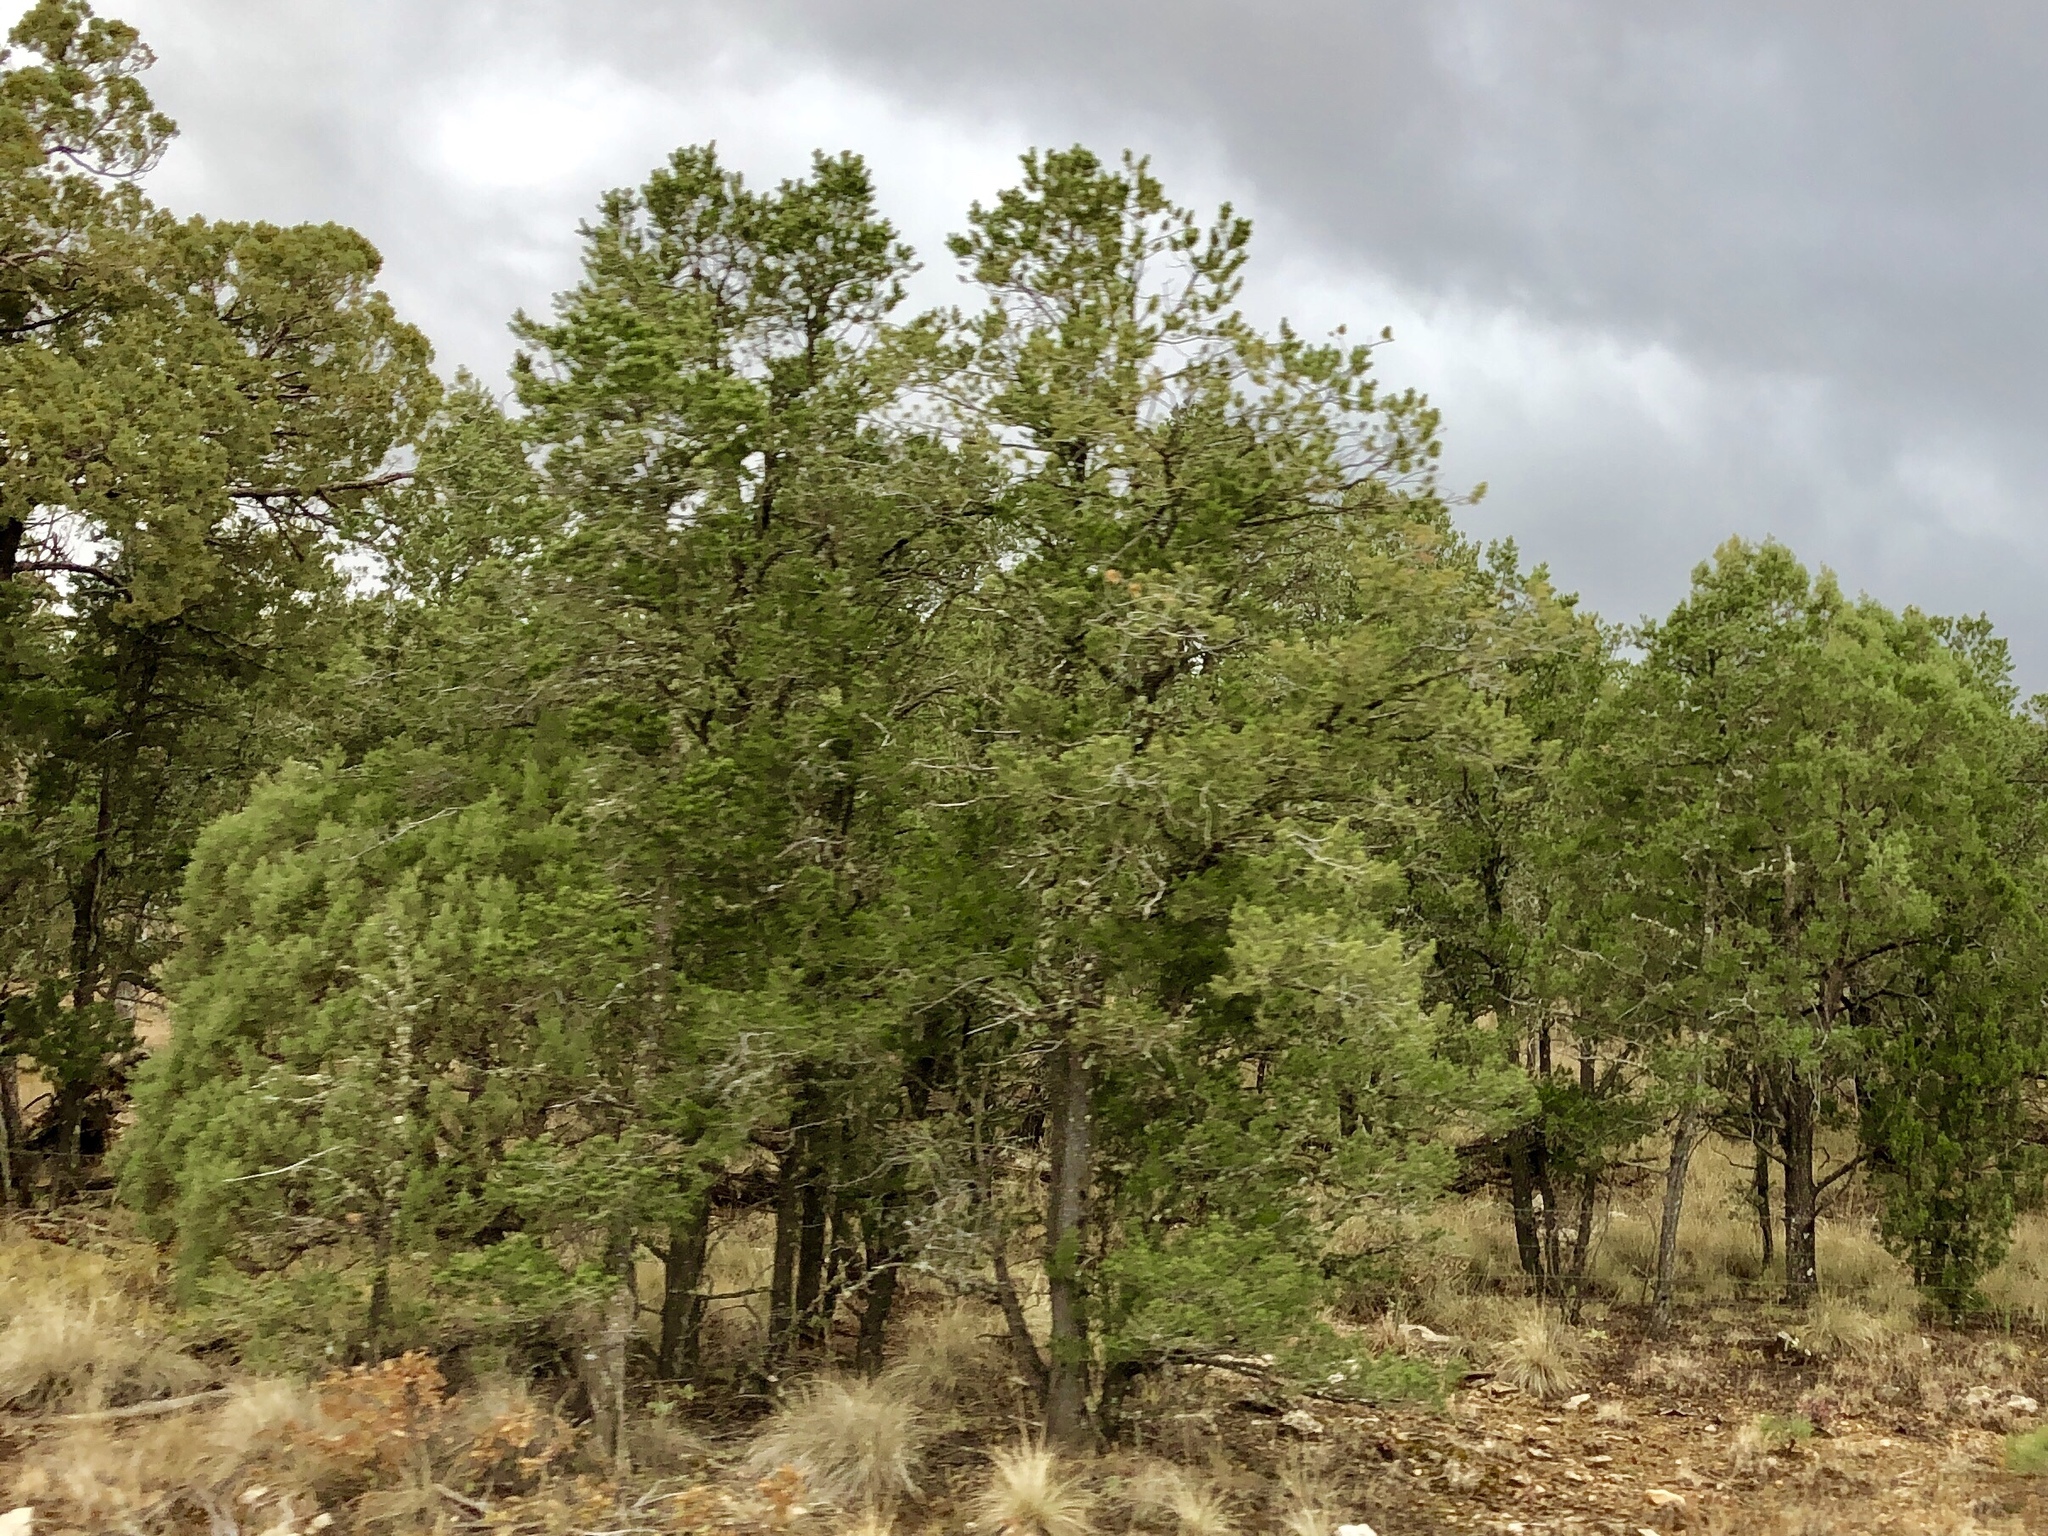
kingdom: Plantae
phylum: Tracheophyta
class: Pinopsida
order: Pinales
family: Pinaceae
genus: Pinus
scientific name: Pinus edulis
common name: Colorado pinyon
